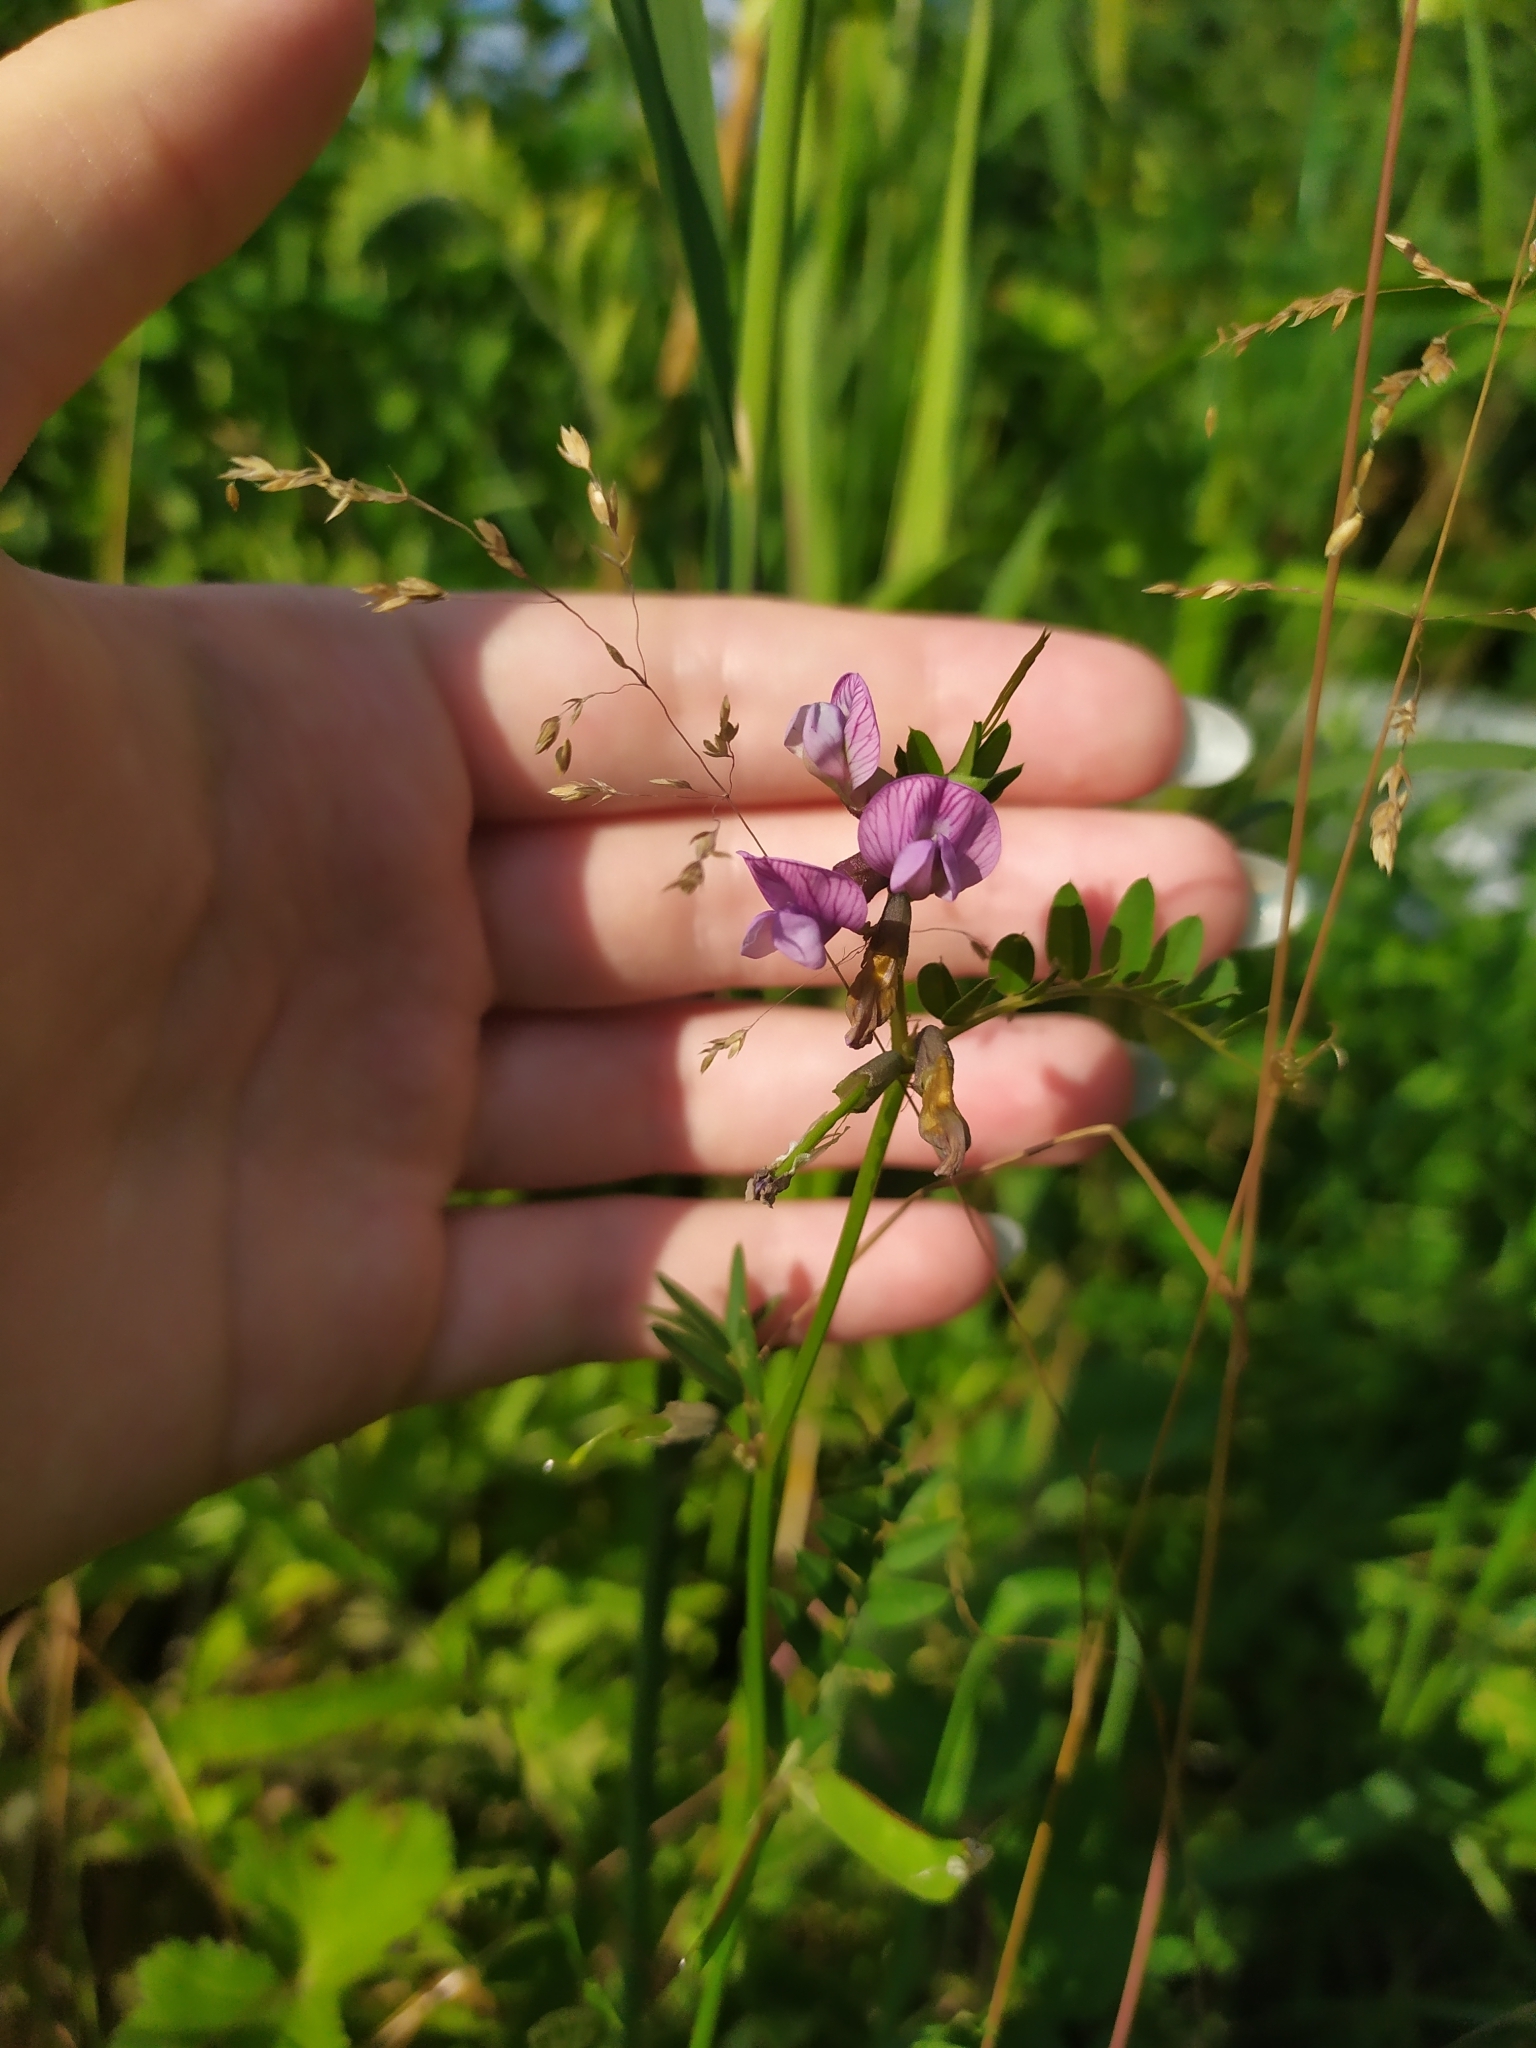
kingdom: Plantae
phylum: Tracheophyta
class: Magnoliopsida
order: Fabales
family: Fabaceae
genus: Vicia
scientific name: Vicia sepium
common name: Bush vetch
